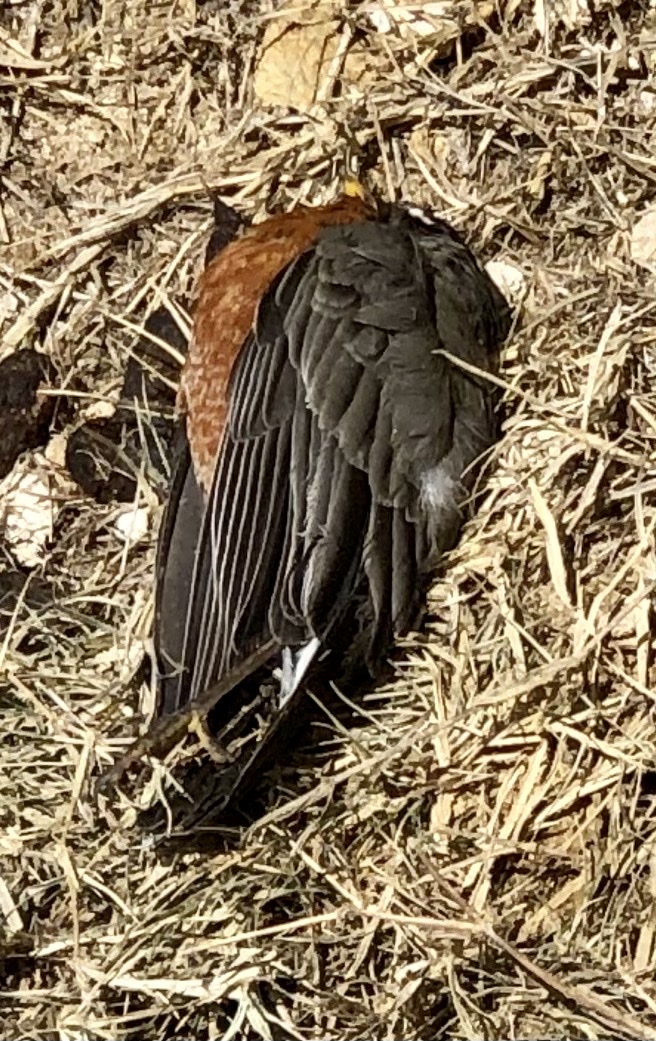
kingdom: Animalia
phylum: Chordata
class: Aves
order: Passeriformes
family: Turdidae
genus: Turdus
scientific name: Turdus migratorius
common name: American robin
